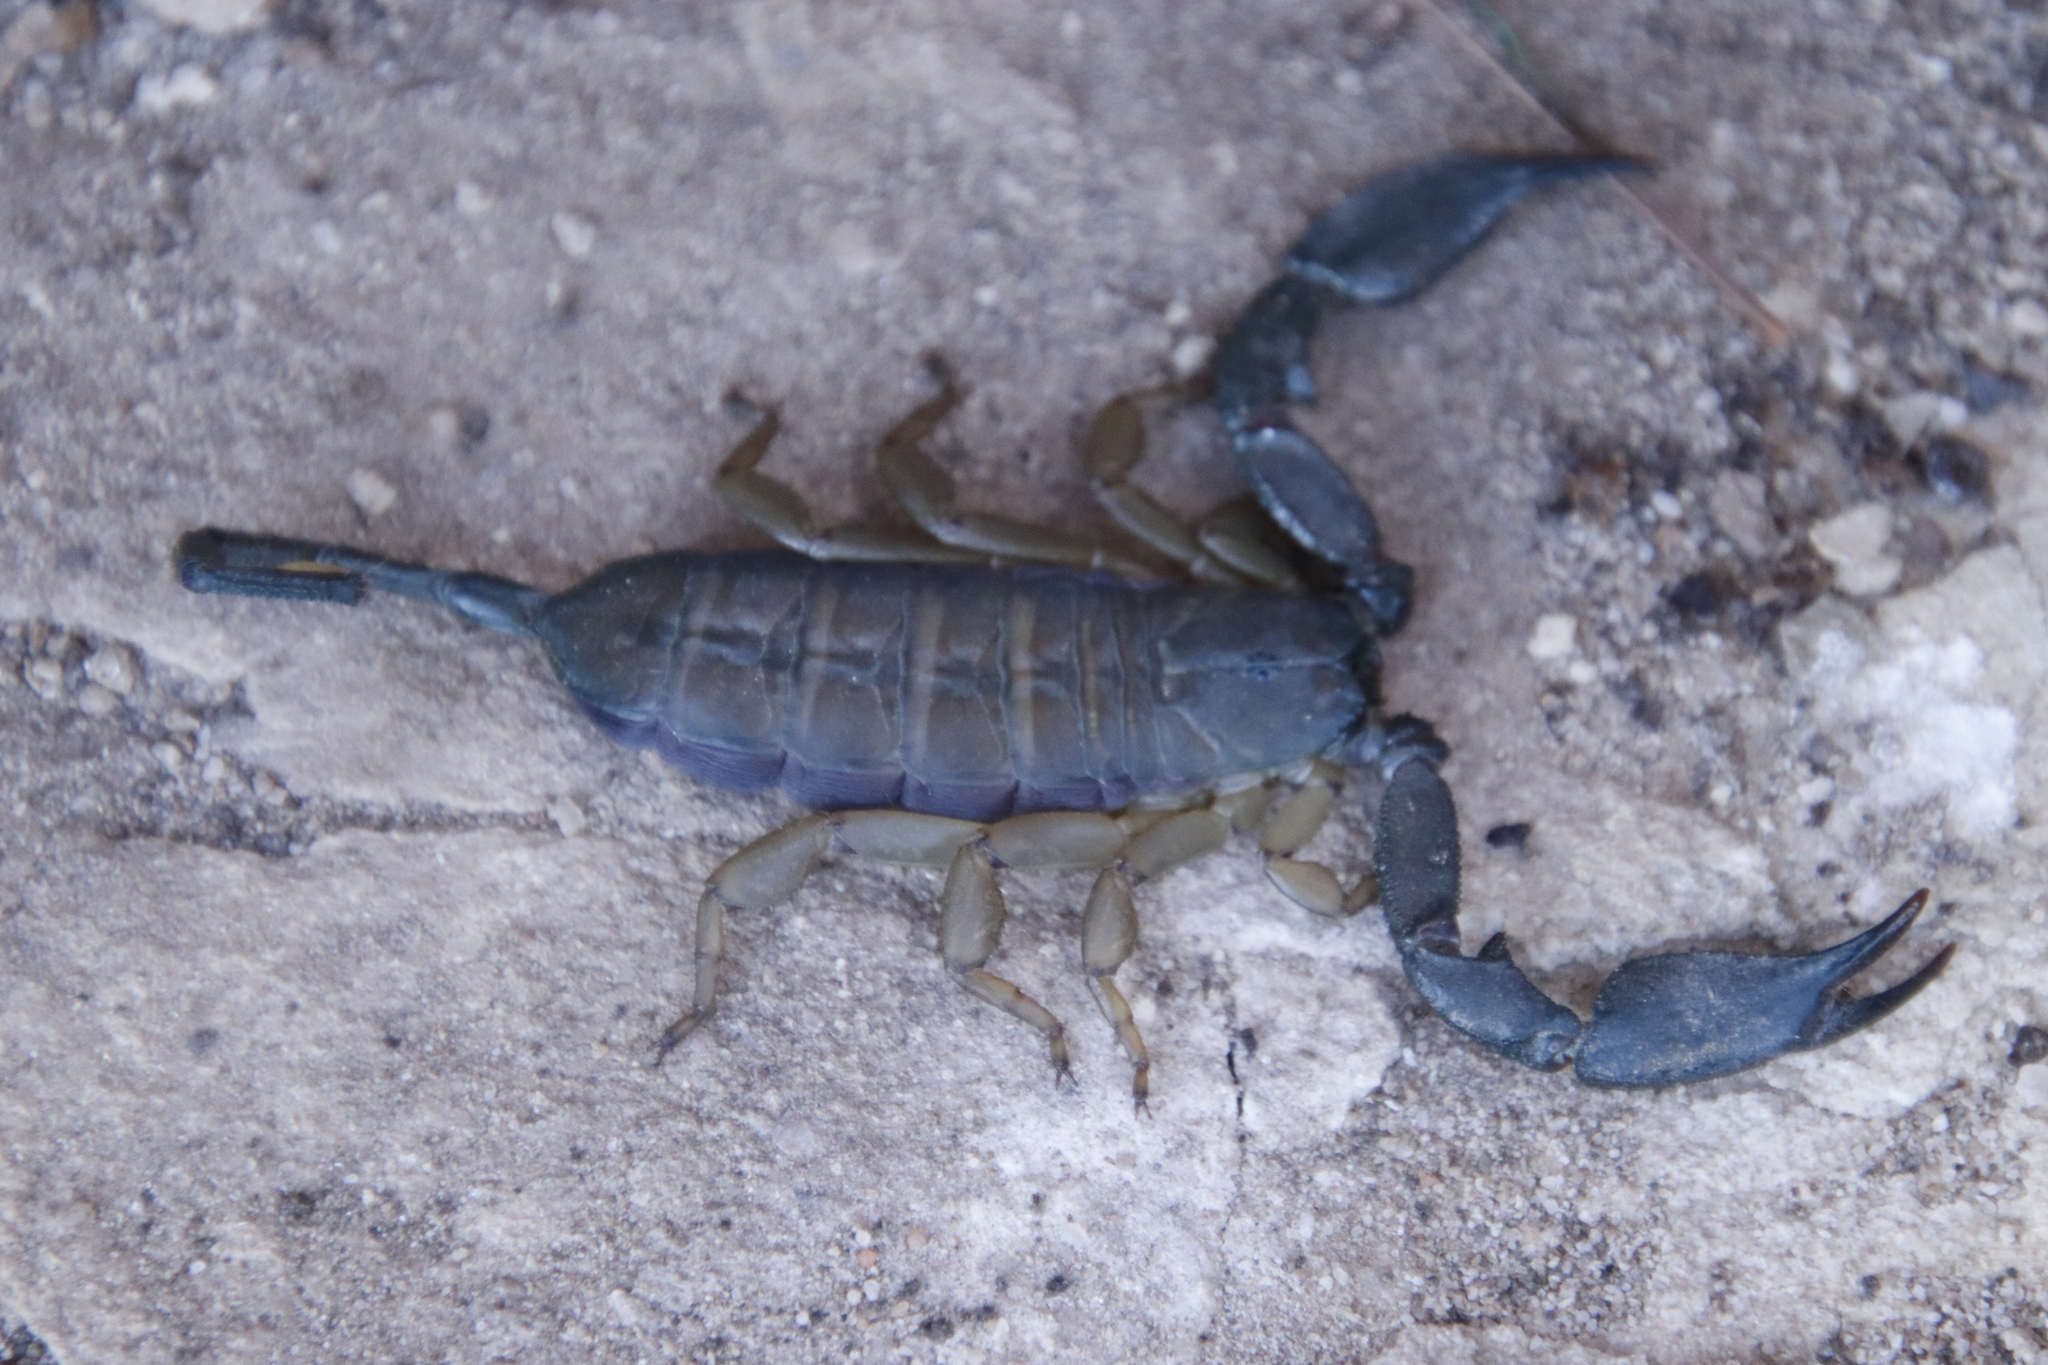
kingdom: Animalia
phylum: Arthropoda
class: Arachnida
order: Scorpiones
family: Hormuridae
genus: Hadogenes
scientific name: Hadogenes minor
